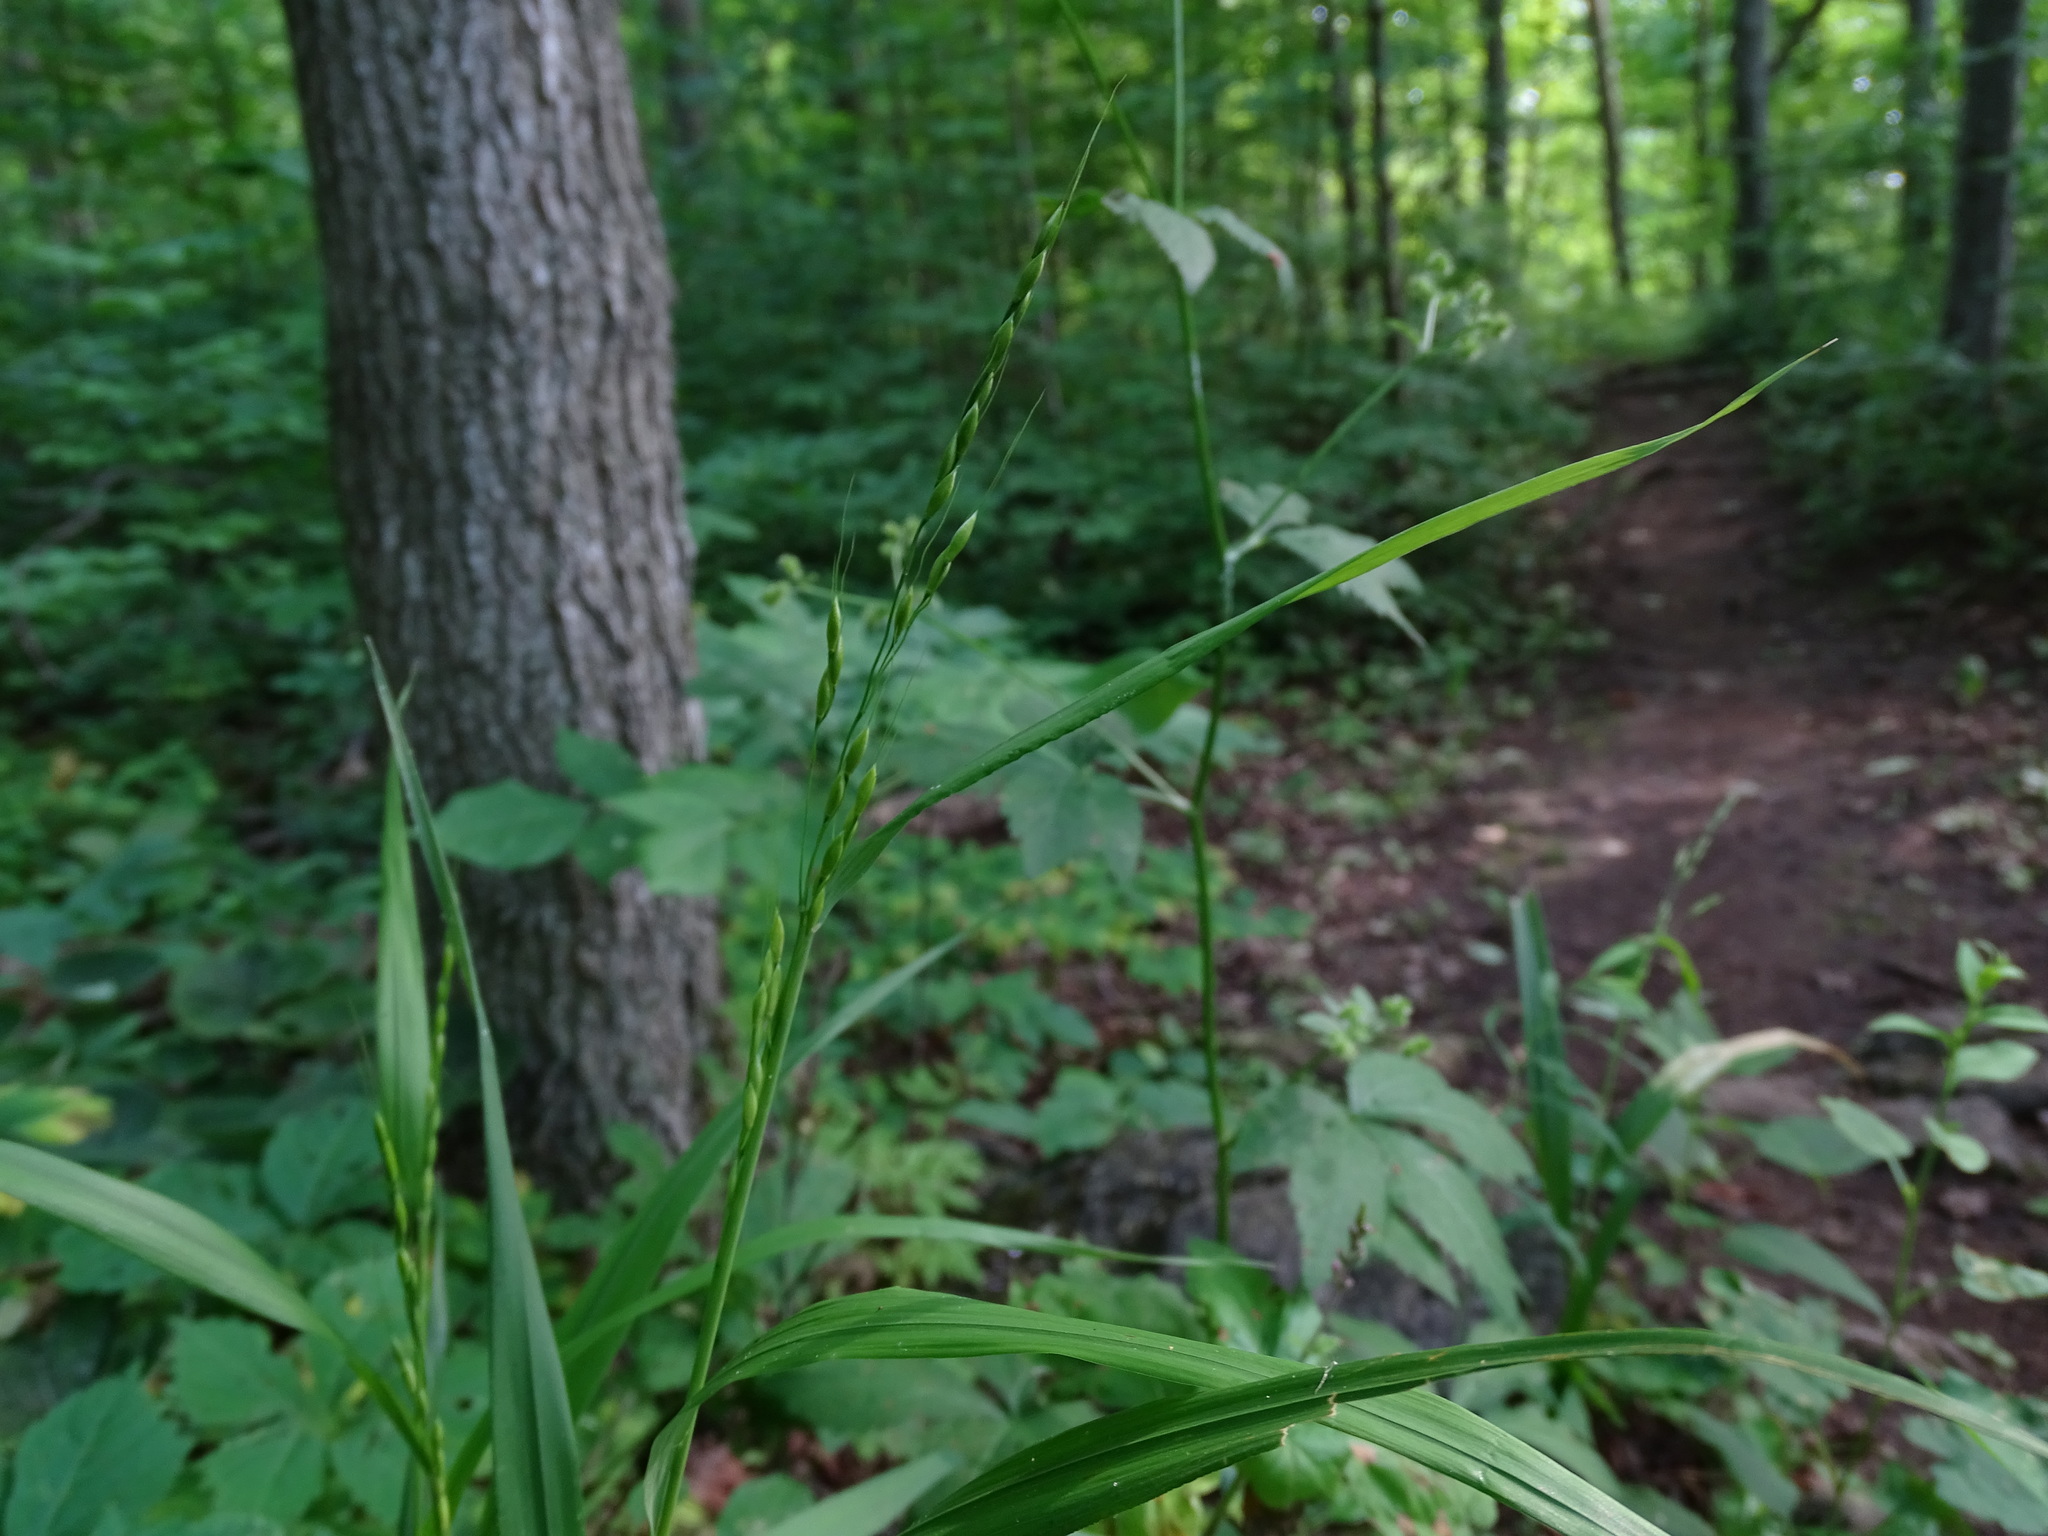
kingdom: Plantae
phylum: Tracheophyta
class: Liliopsida
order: Poales
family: Poaceae
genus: Patis
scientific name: Patis racemosa
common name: Black-fruited mountain rice
